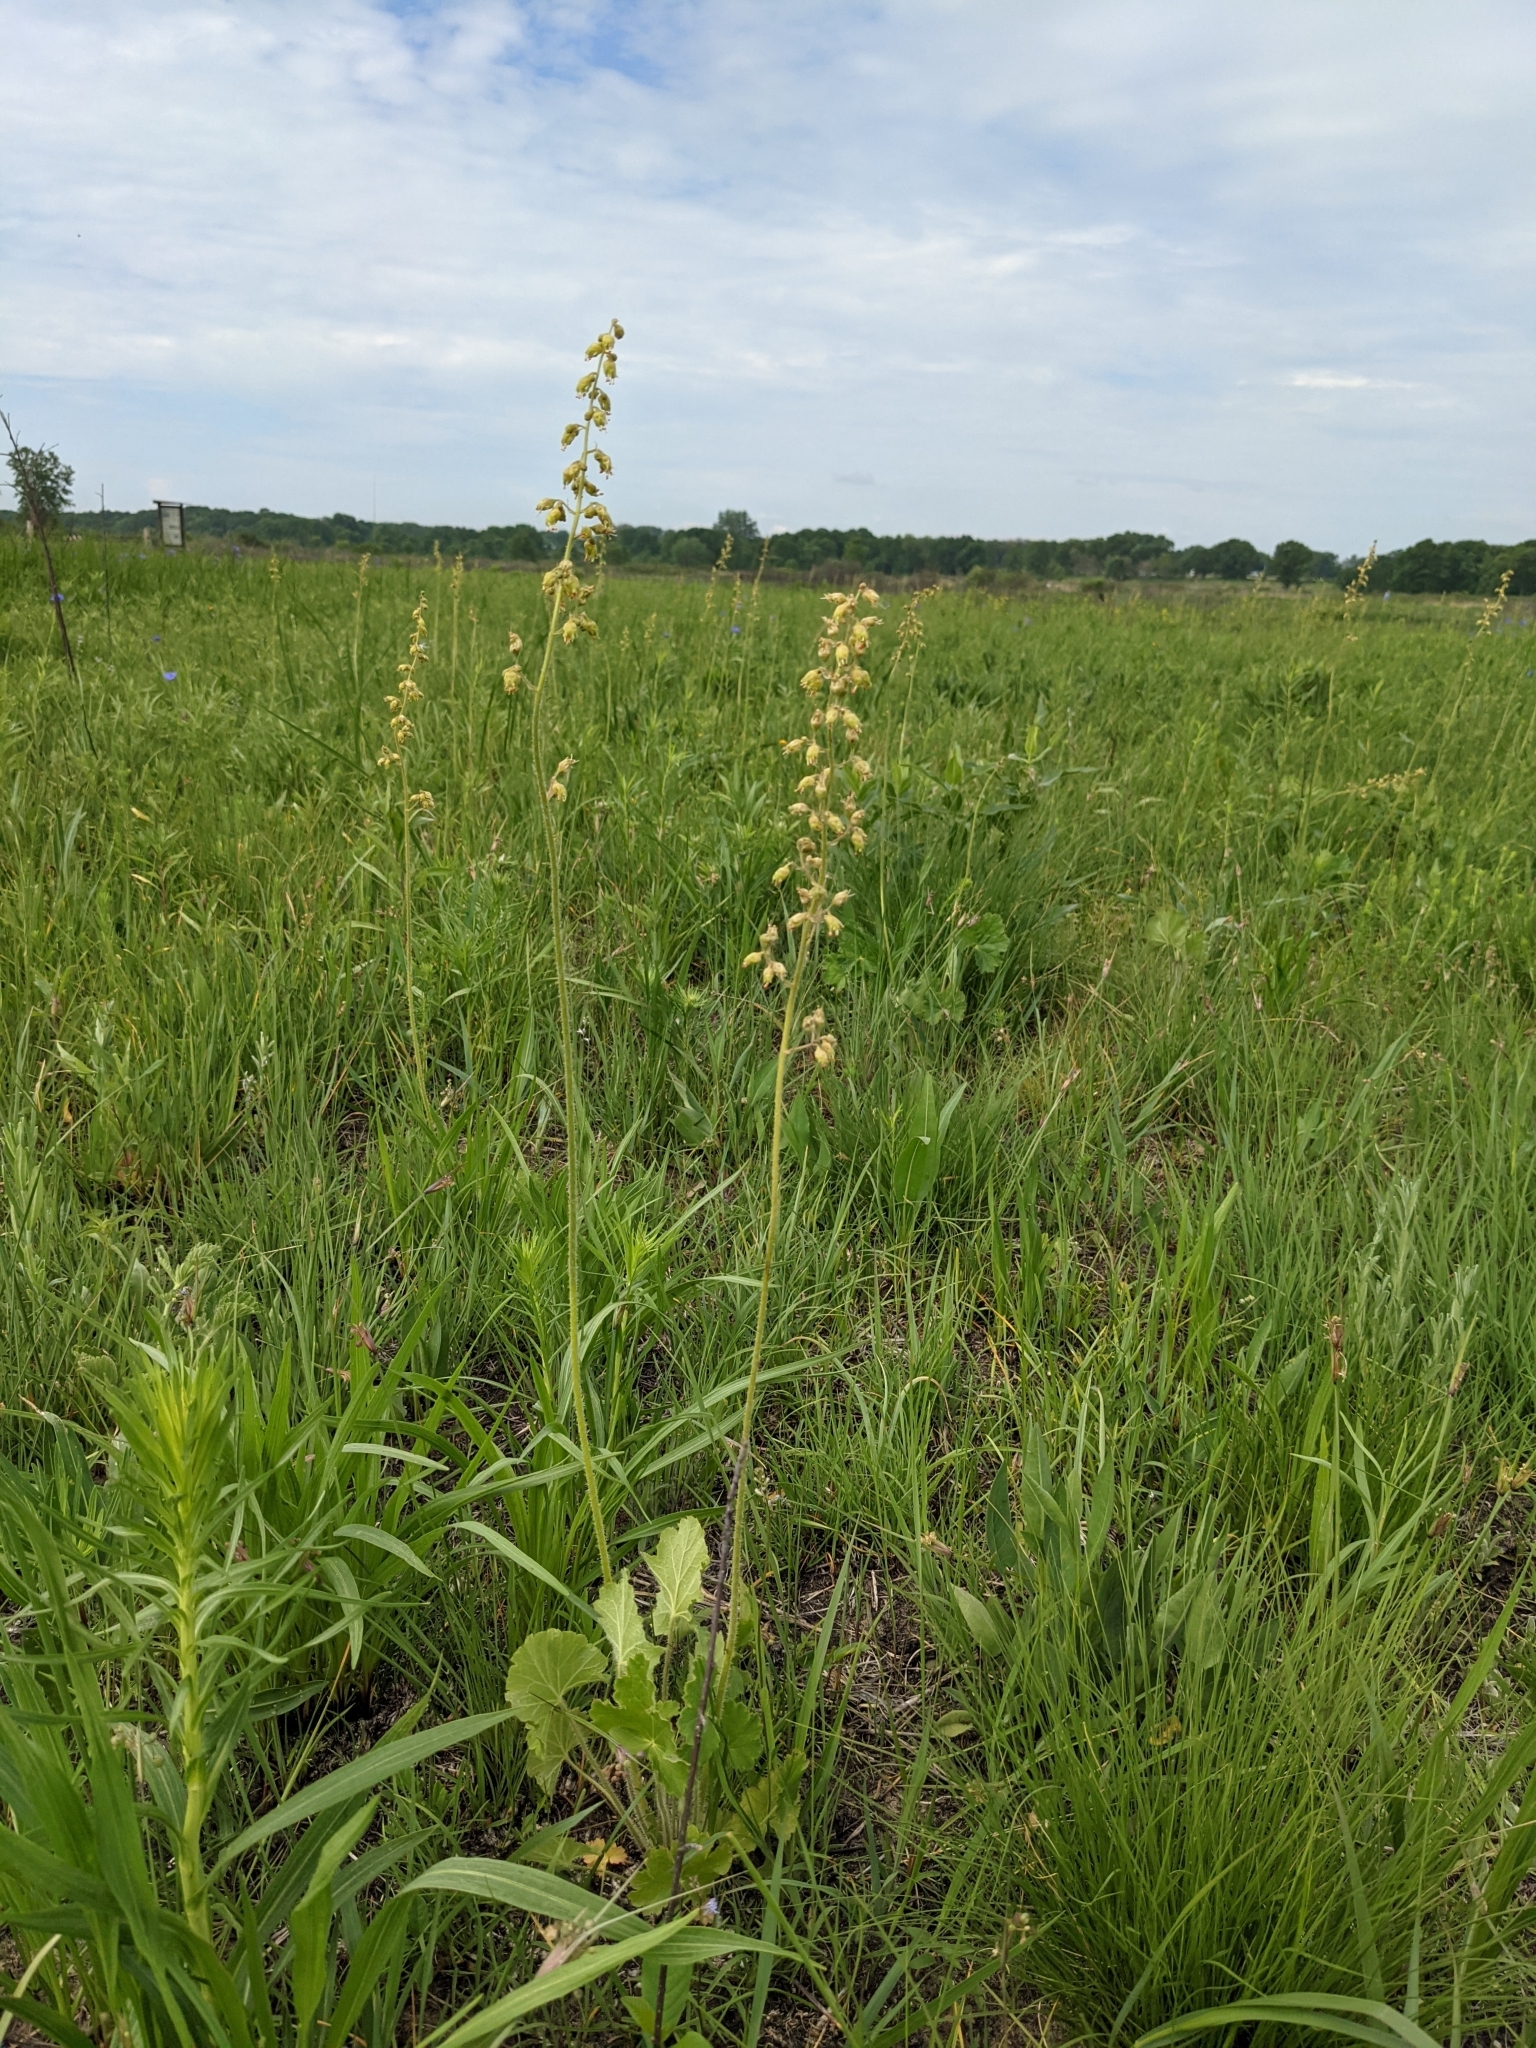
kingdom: Plantae
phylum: Tracheophyta
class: Magnoliopsida
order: Saxifragales
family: Saxifragaceae
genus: Heuchera
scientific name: Heuchera richardsonii
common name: Richardson's alumroot
